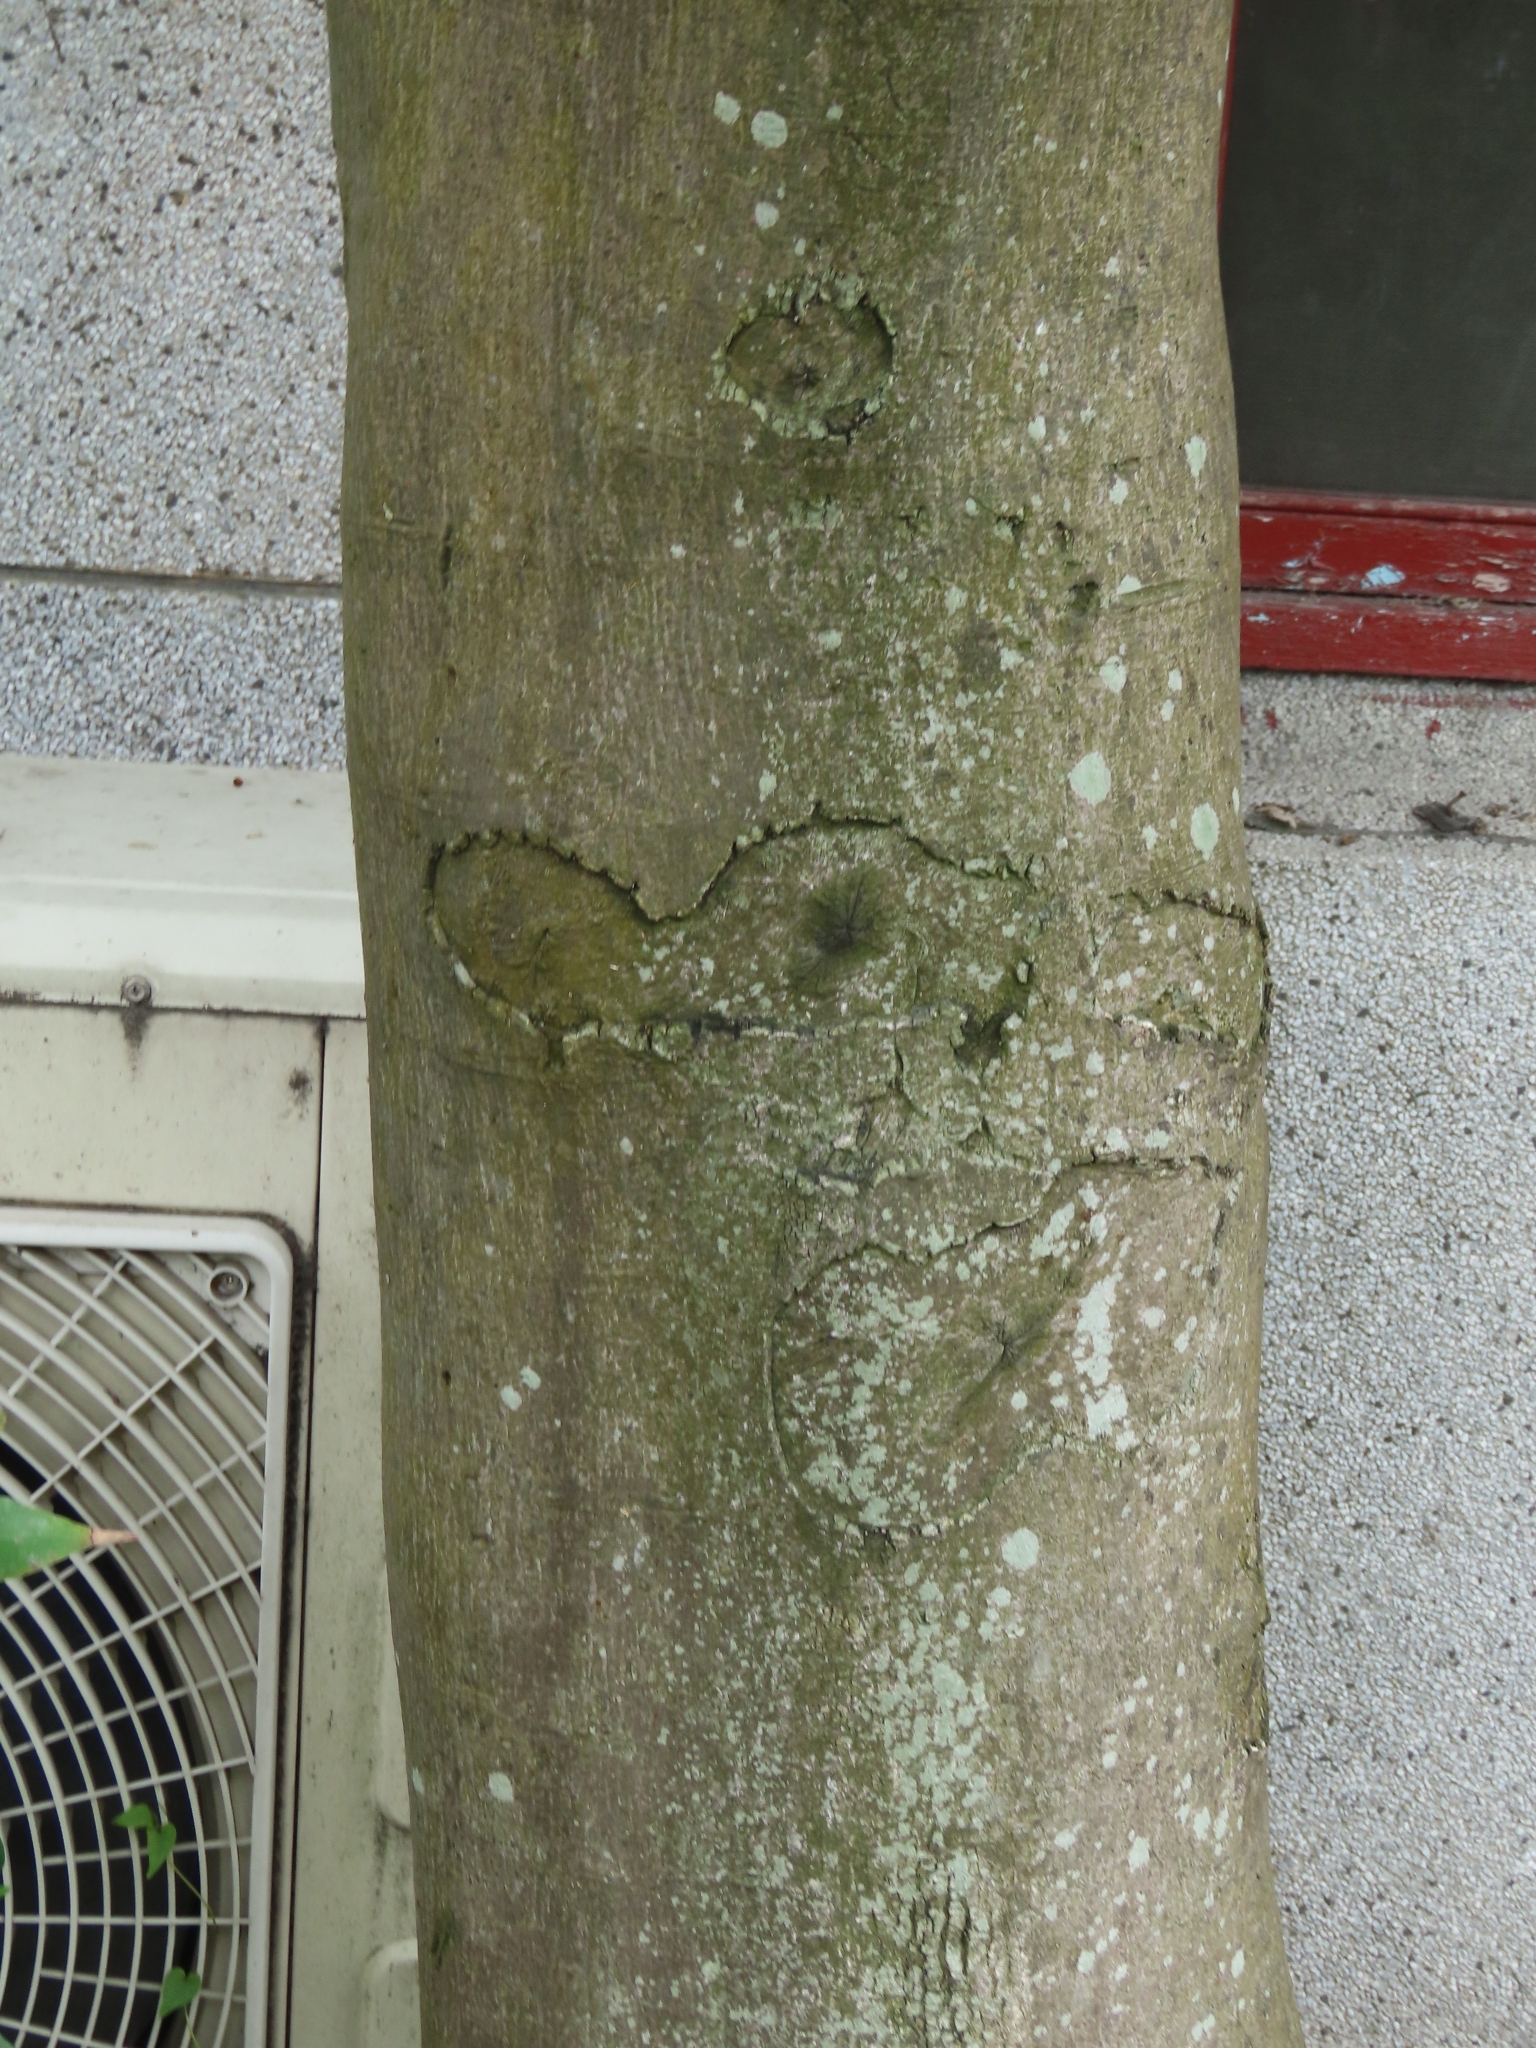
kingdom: Plantae
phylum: Tracheophyta
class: Magnoliopsida
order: Rosales
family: Moraceae
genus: Ficus
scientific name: Ficus ampelos
